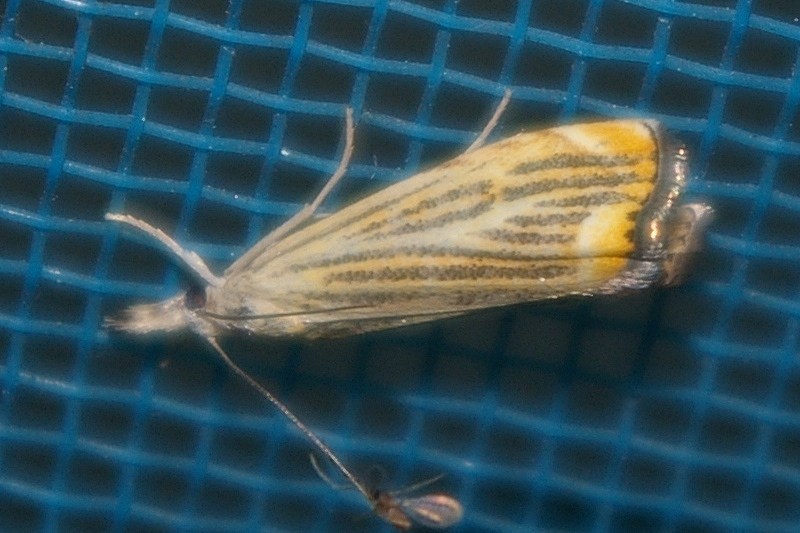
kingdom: Animalia
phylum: Arthropoda
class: Insecta
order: Lepidoptera
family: Crambidae
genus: Flavocrambus
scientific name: Flavocrambus striatellus
